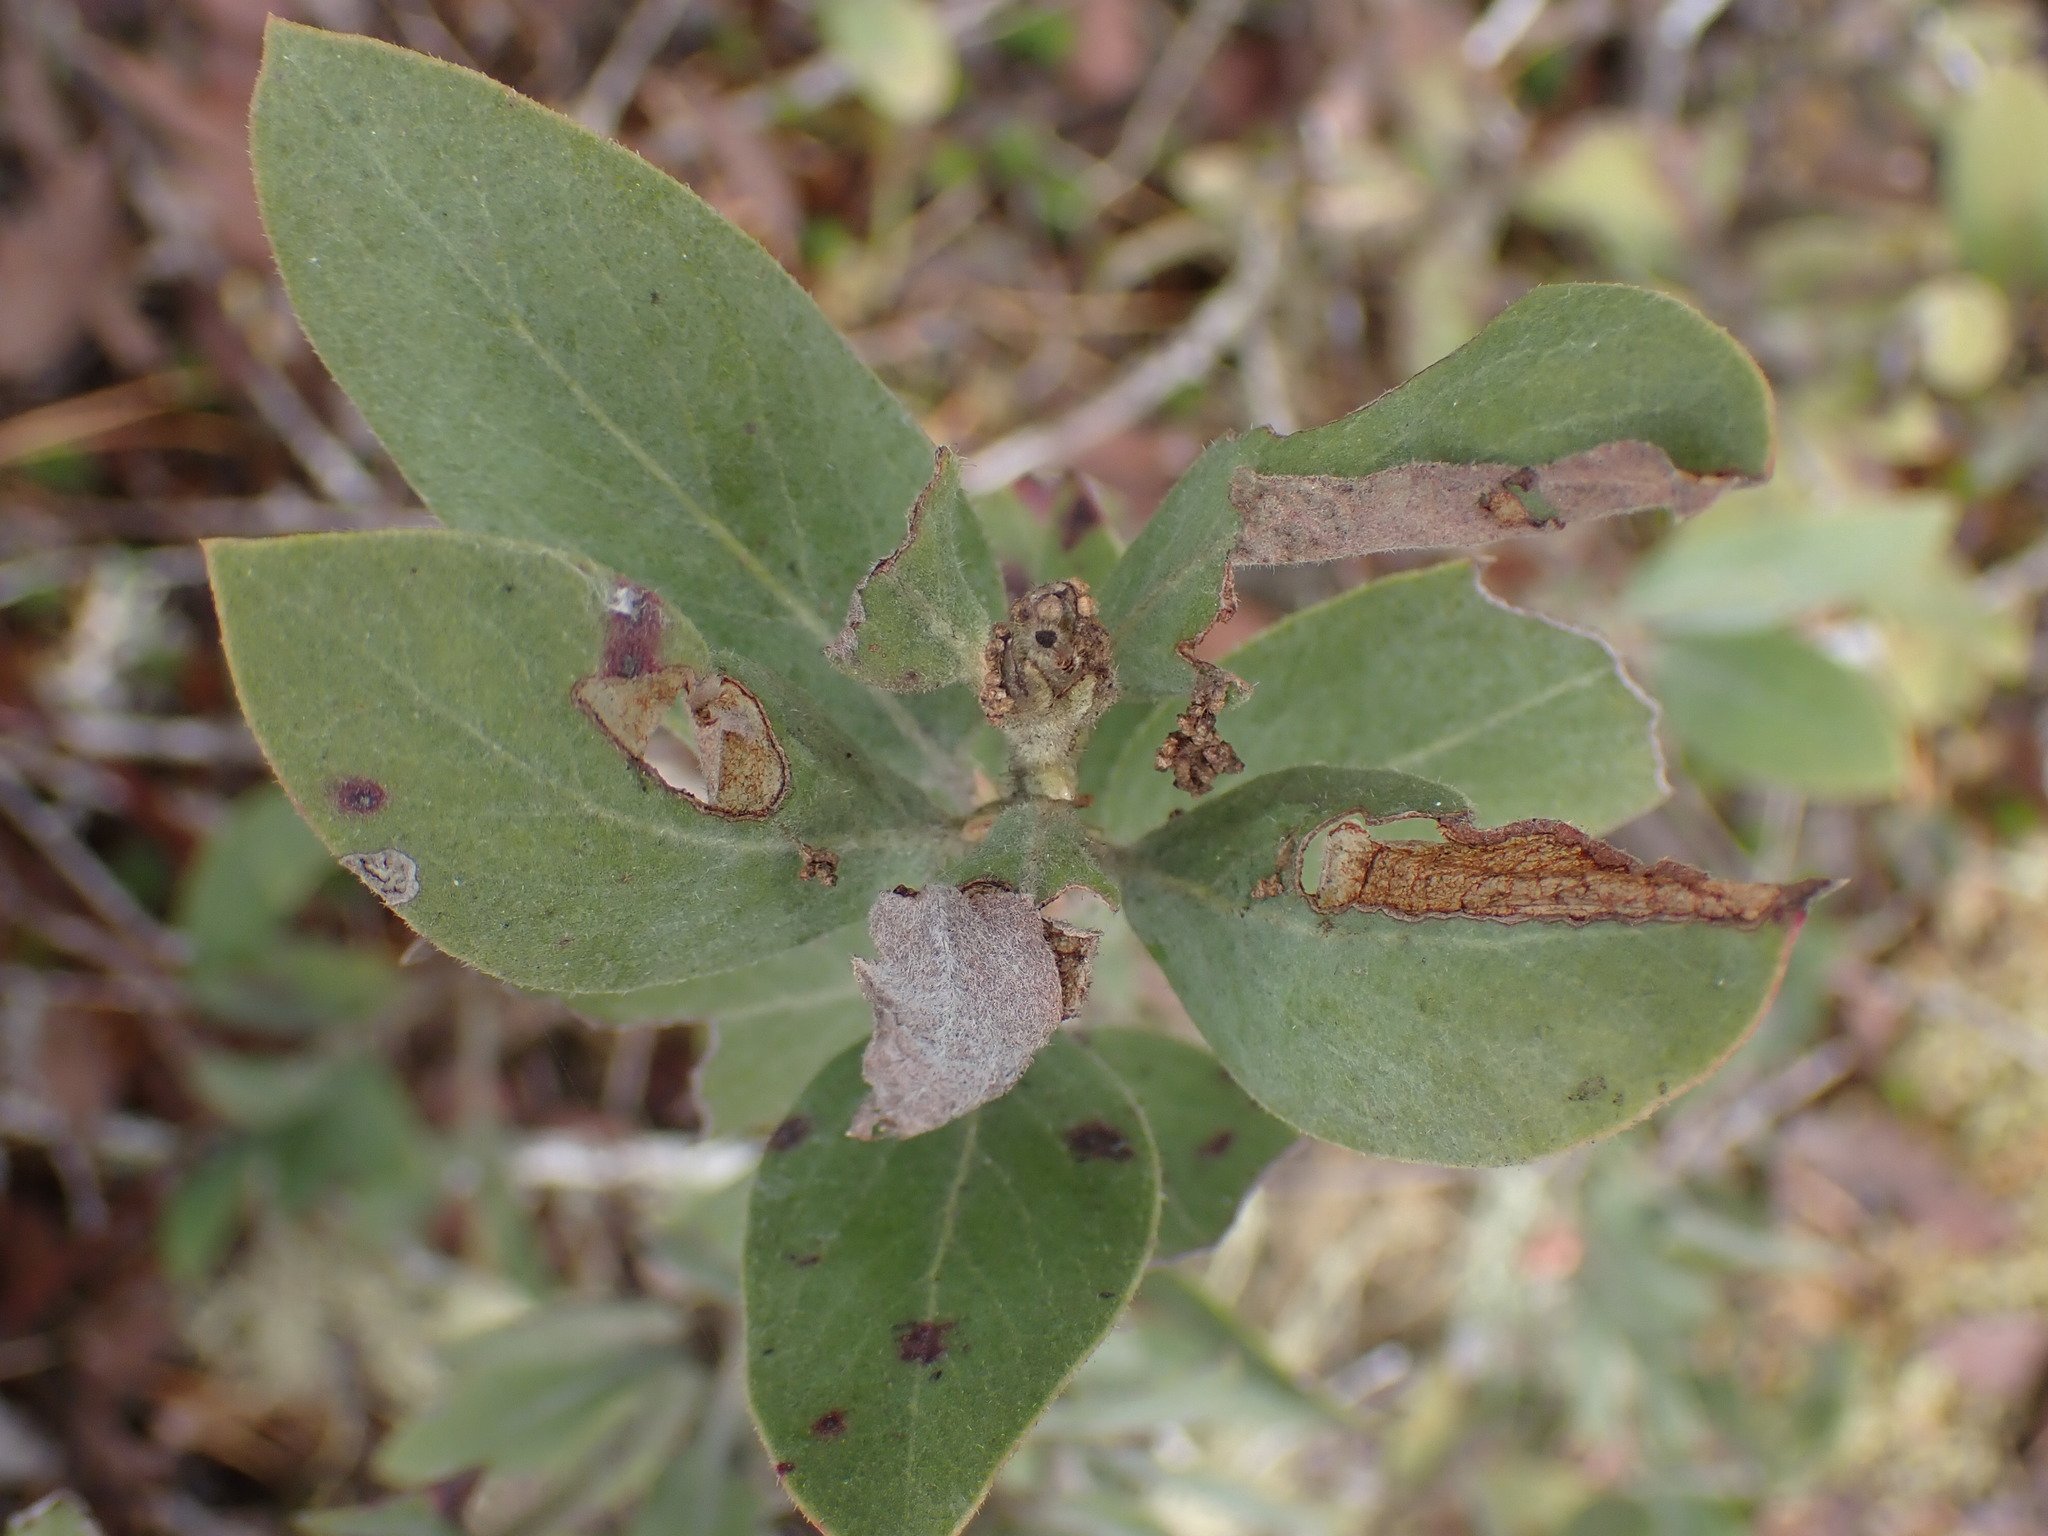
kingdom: Plantae
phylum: Tracheophyta
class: Magnoliopsida
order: Ericales
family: Ericaceae
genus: Arctostaphylos
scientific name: Arctostaphylos columbiana
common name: Bristly bearberry
